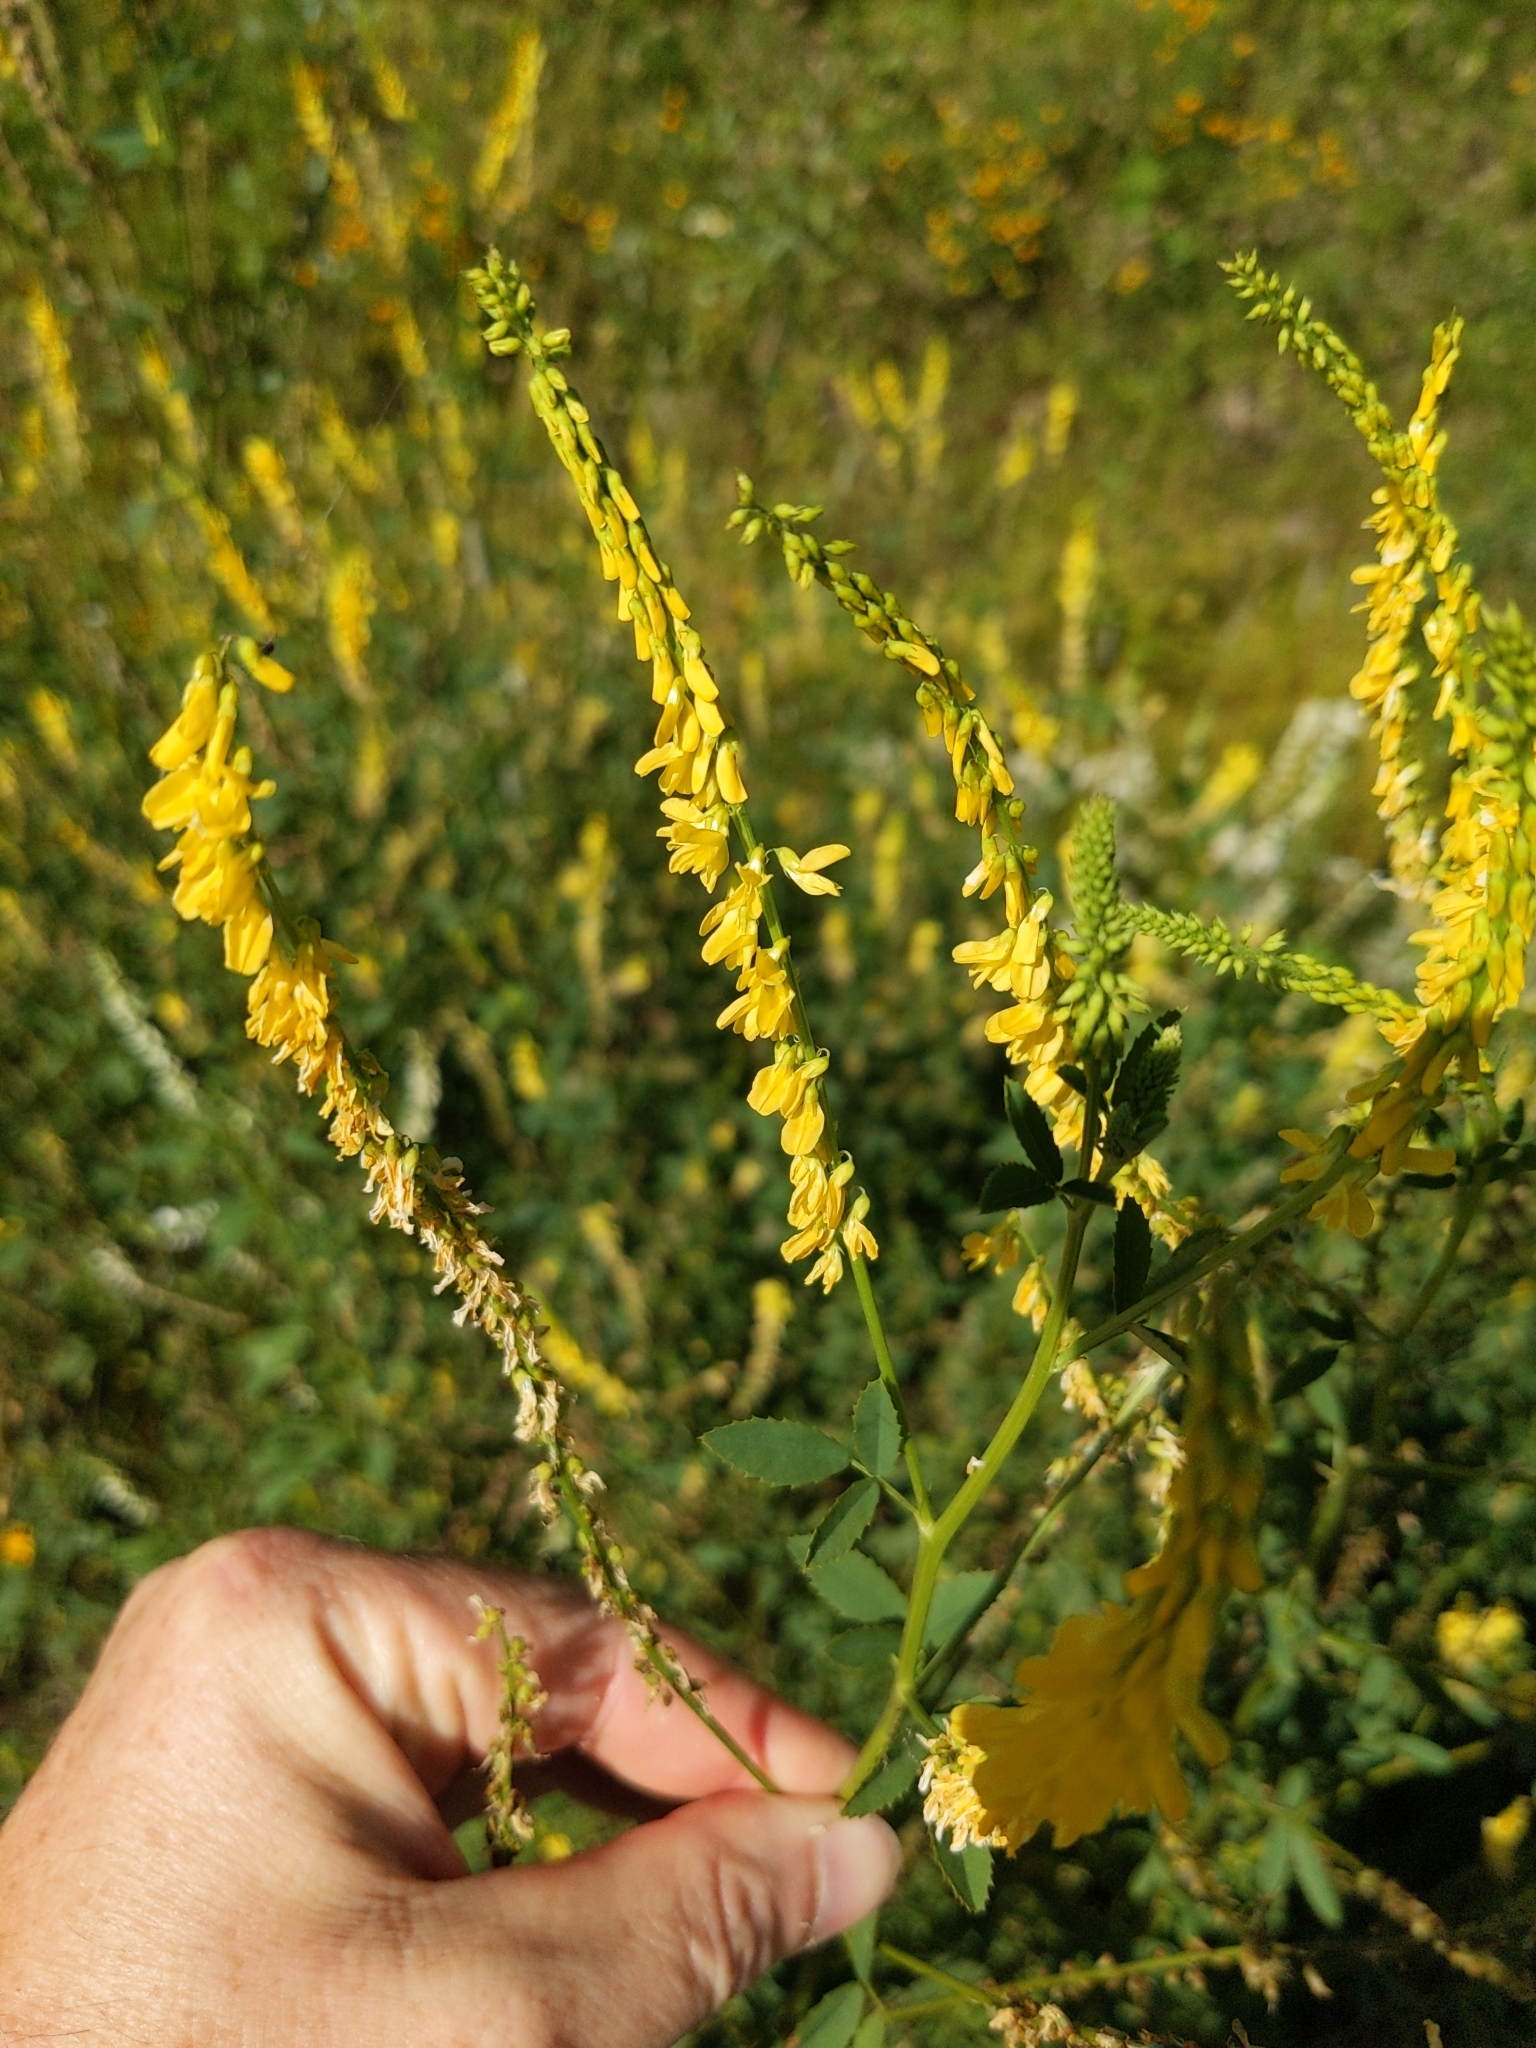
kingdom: Plantae
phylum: Tracheophyta
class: Magnoliopsida
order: Fabales
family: Fabaceae
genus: Melilotus
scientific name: Melilotus officinalis
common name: Sweetclover
